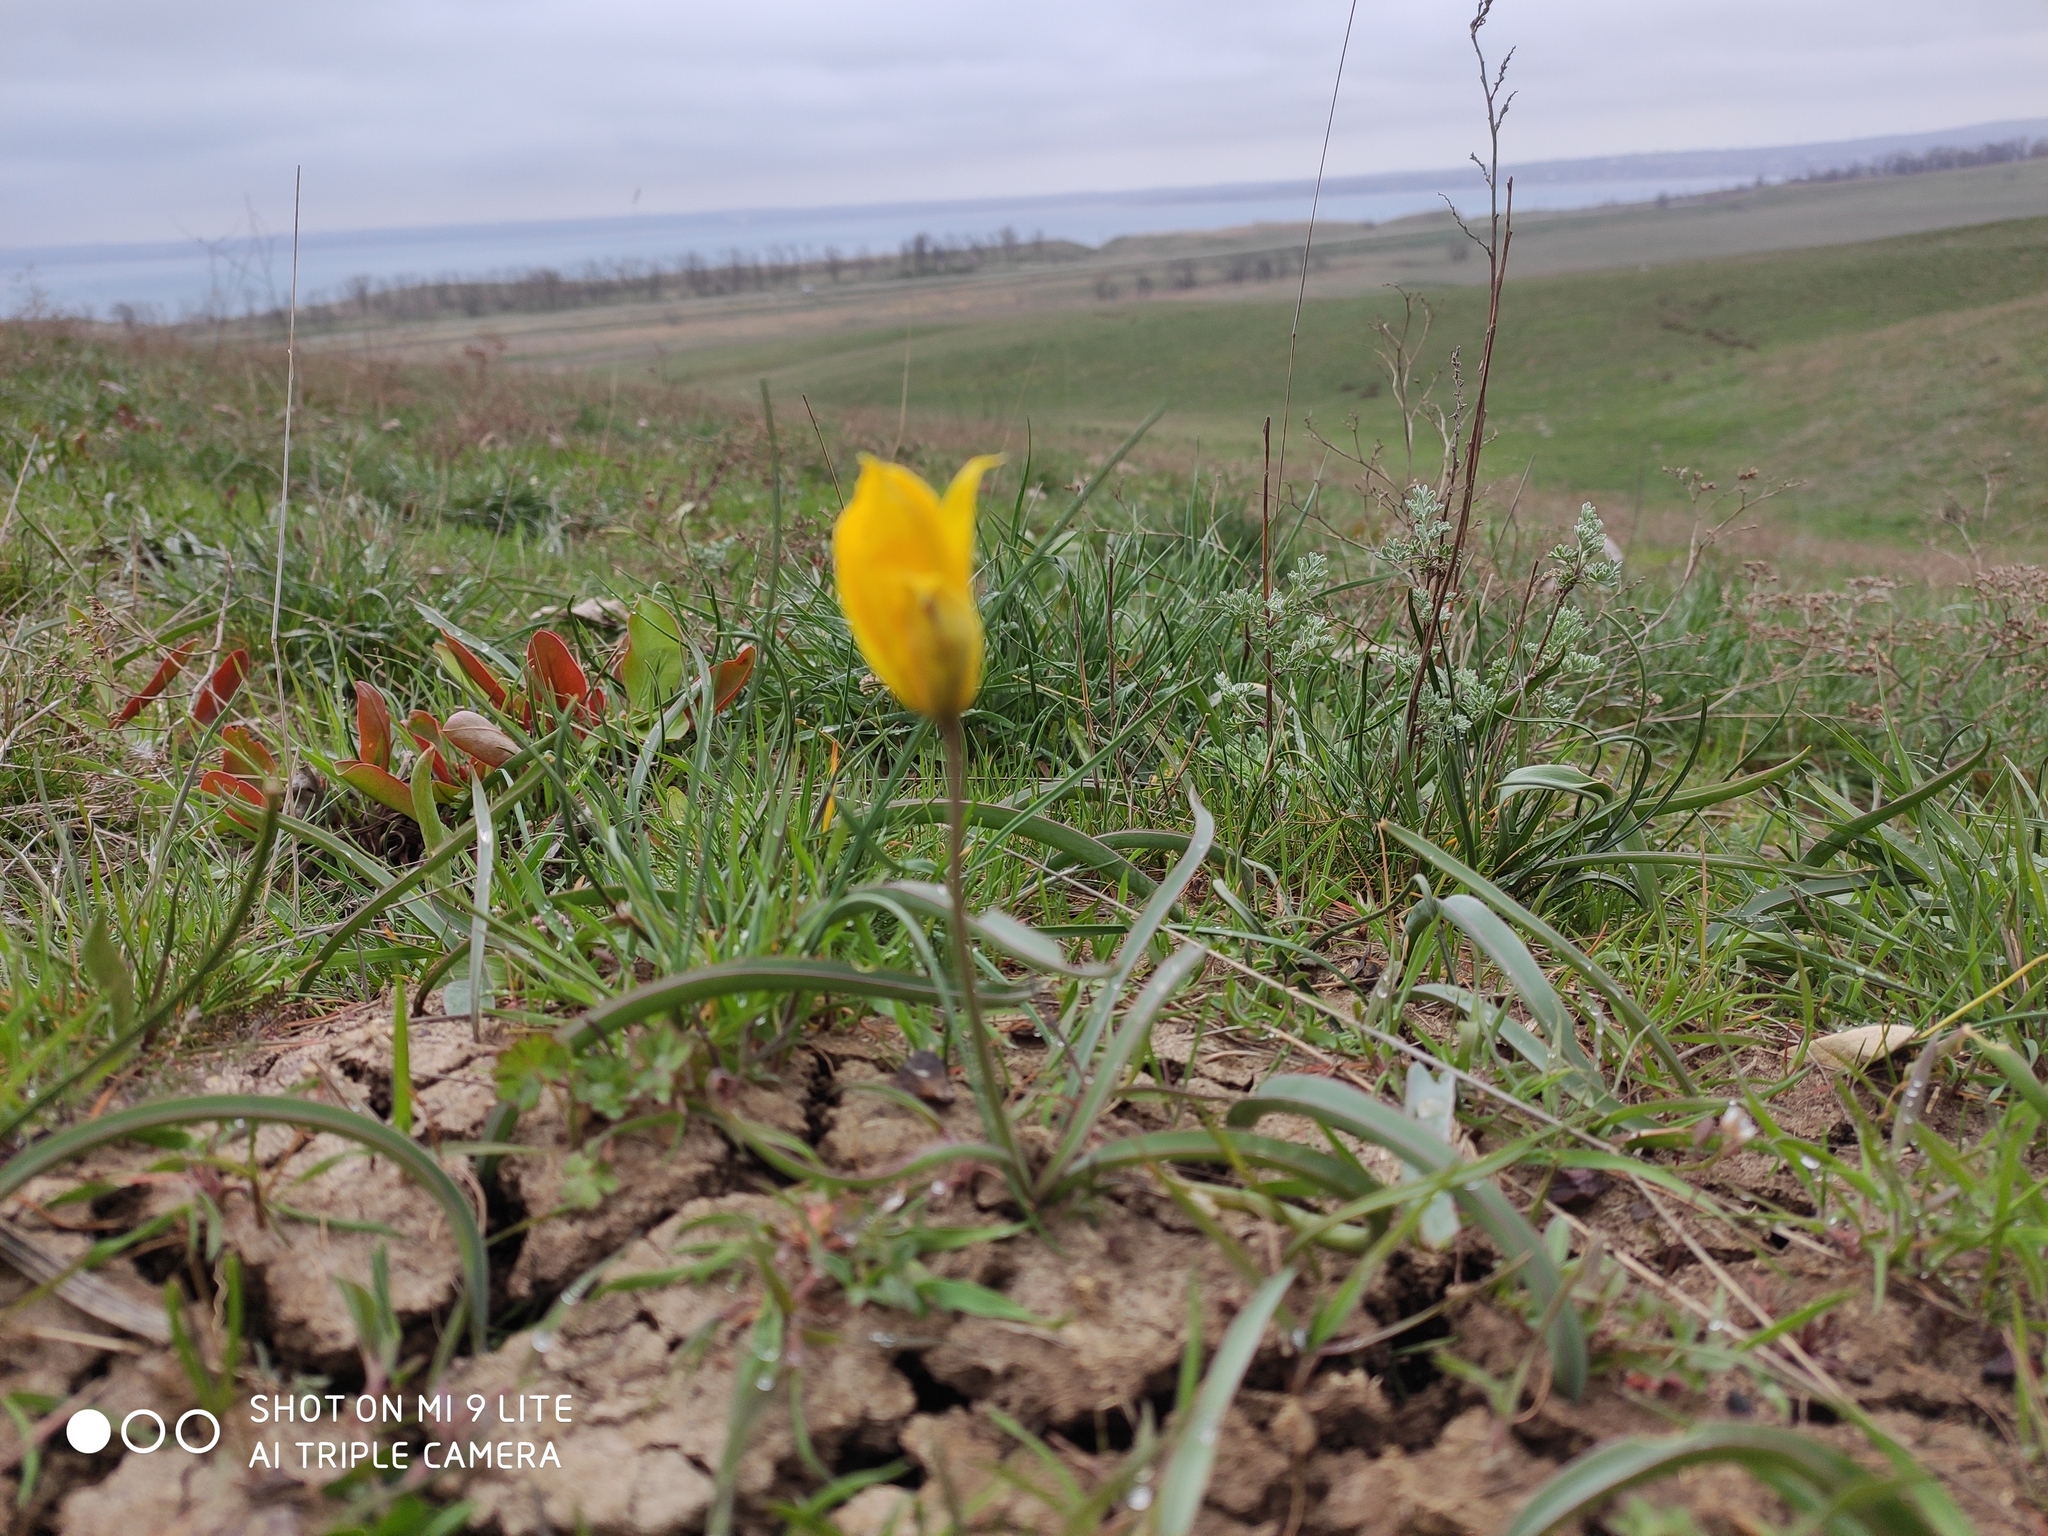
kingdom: Plantae
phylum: Tracheophyta
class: Liliopsida
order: Liliales
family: Liliaceae
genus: Tulipa
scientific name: Tulipa sylvestris
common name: Wild tulip
